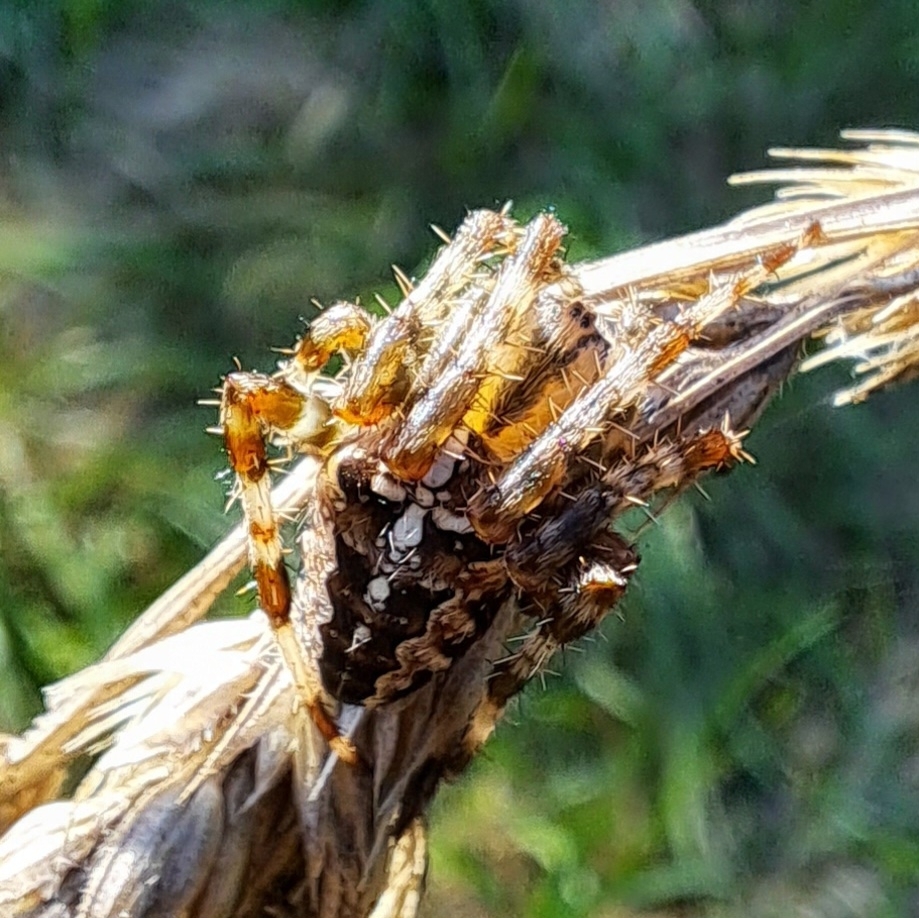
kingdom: Animalia
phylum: Arthropoda
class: Arachnida
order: Araneae
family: Araneidae
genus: Araneus
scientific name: Araneus diadematus
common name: Cross orbweaver
